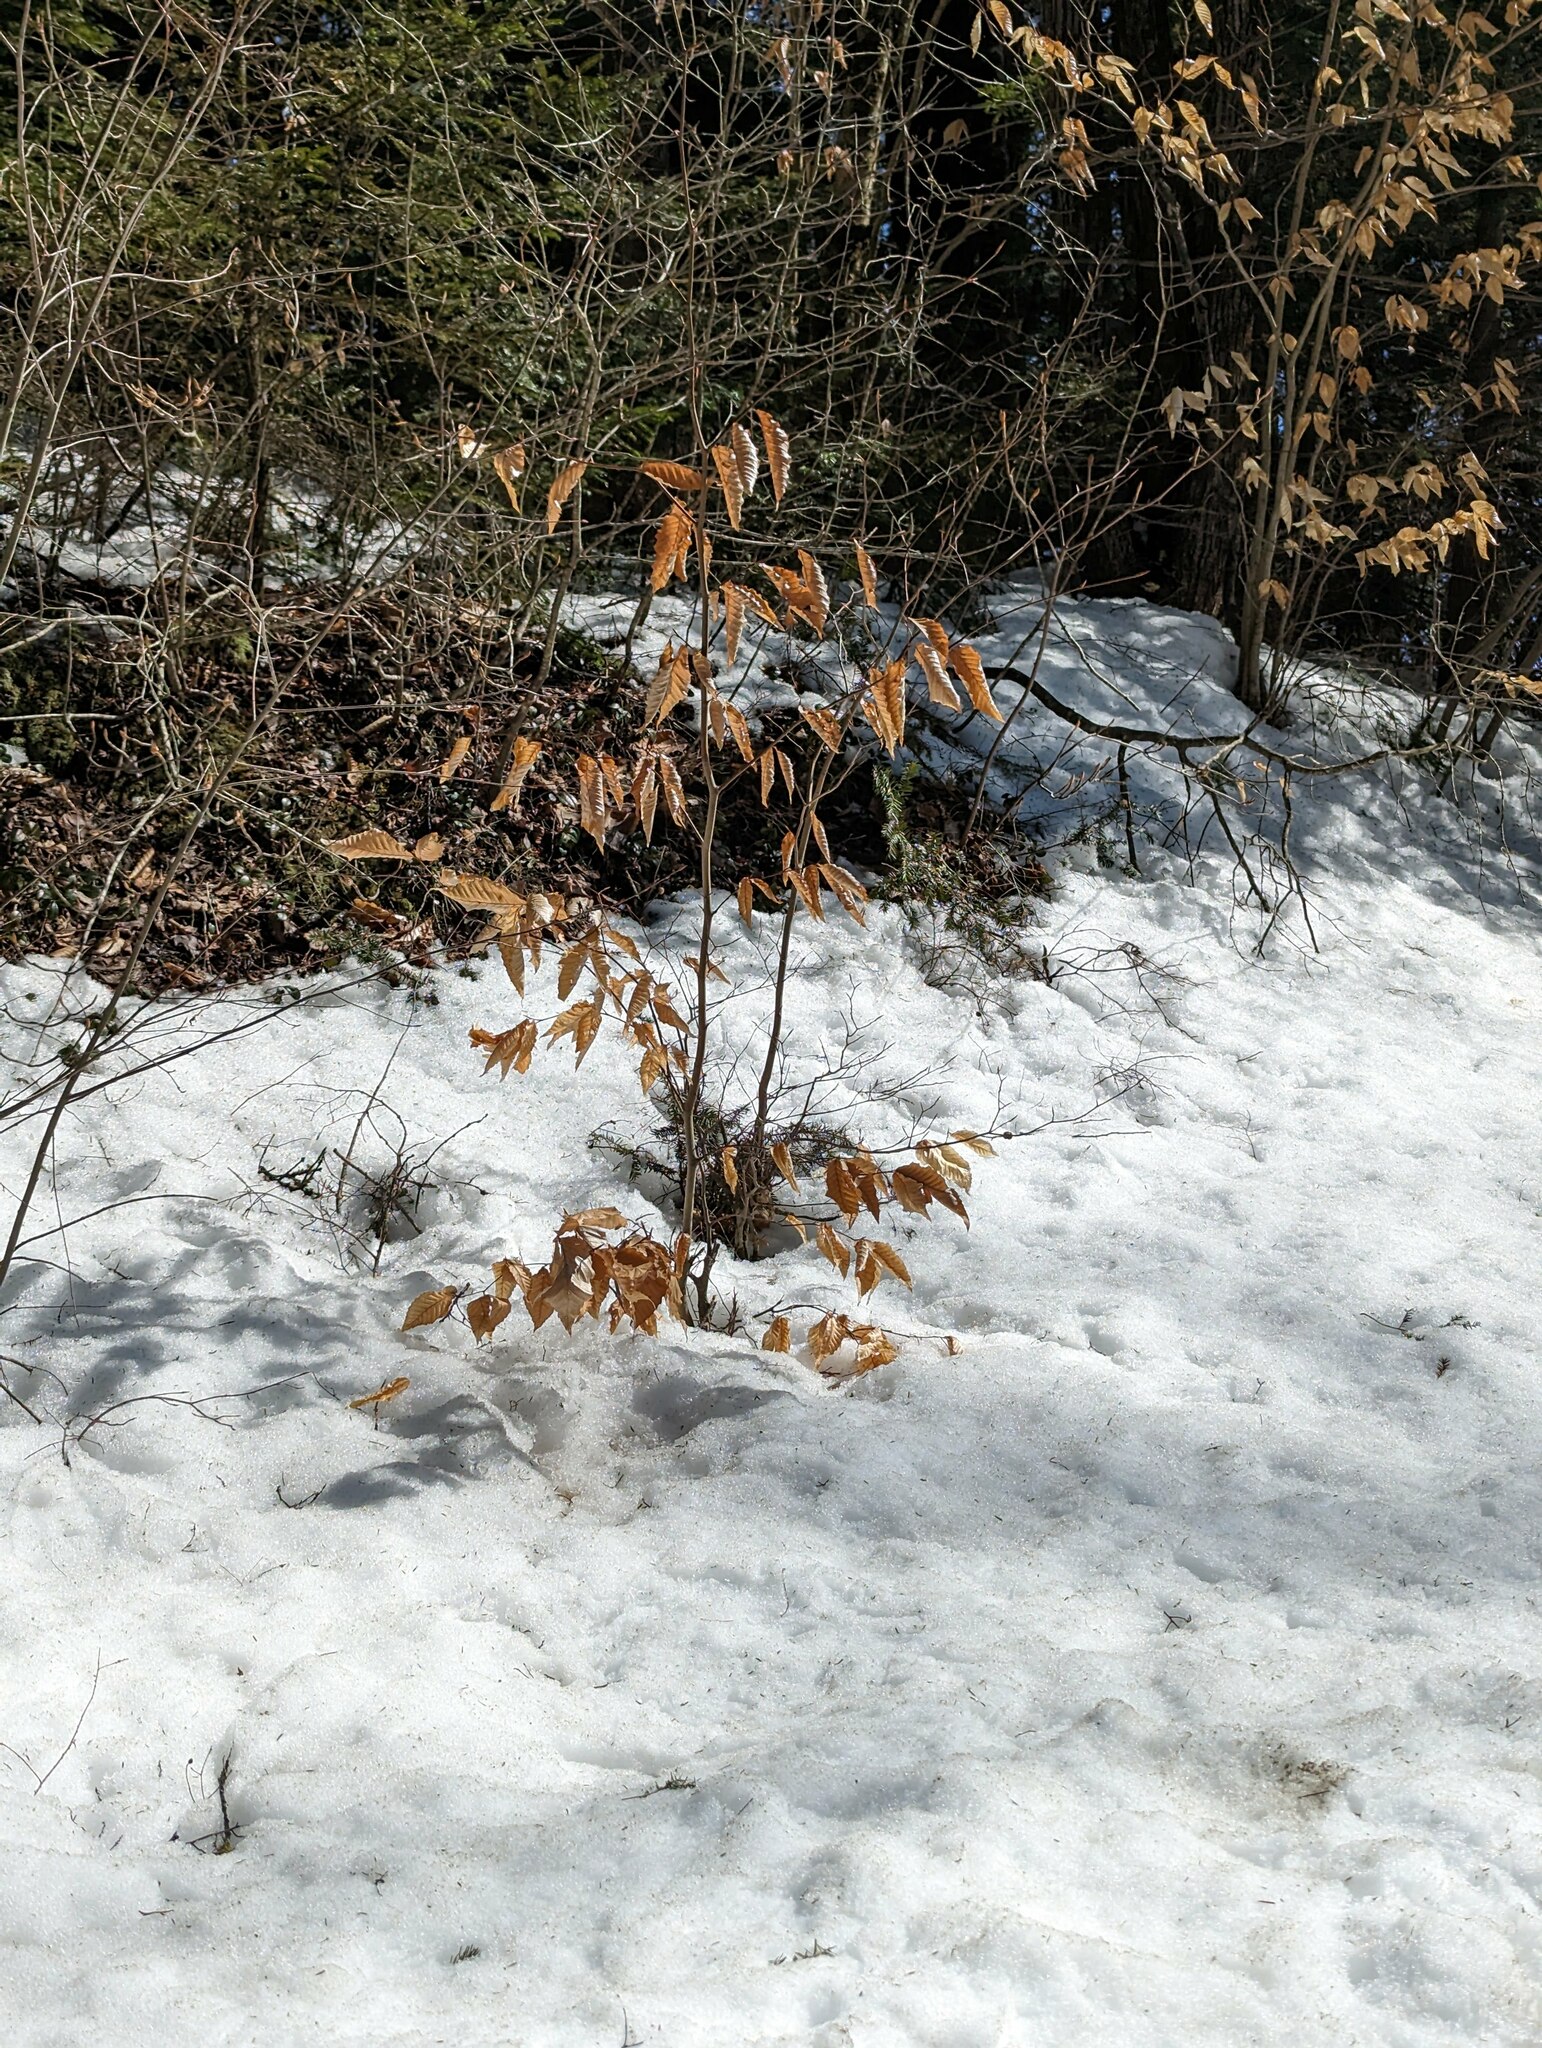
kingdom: Plantae
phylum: Tracheophyta
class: Magnoliopsida
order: Fagales
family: Fagaceae
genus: Fagus
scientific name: Fagus grandifolia
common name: American beech
